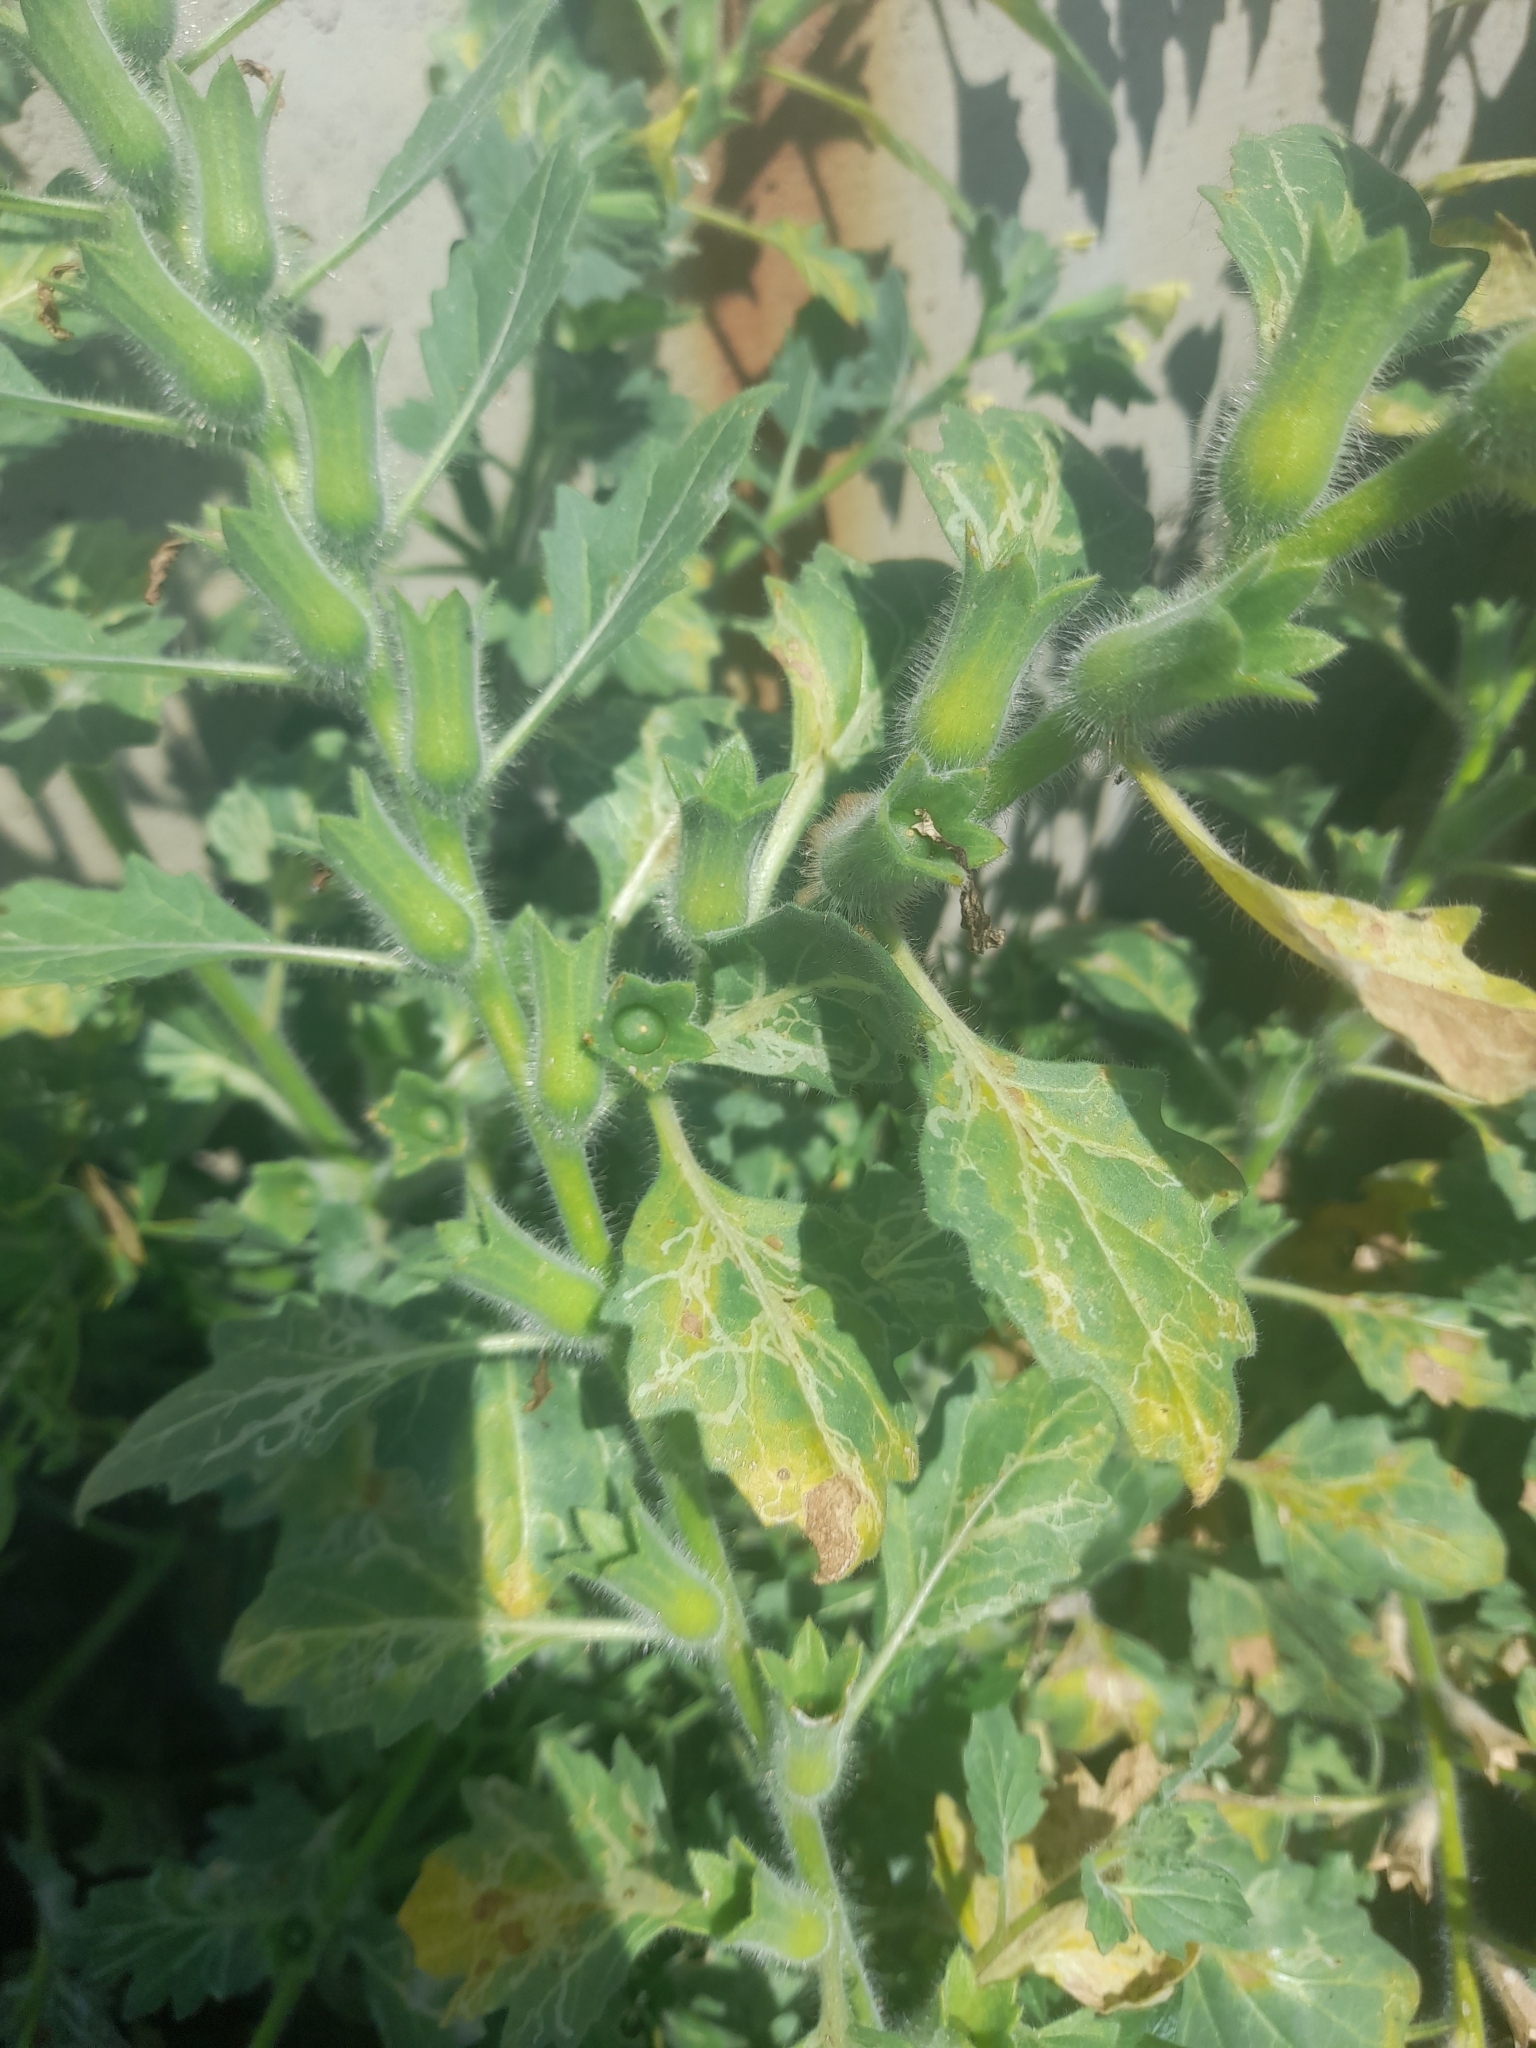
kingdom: Plantae
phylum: Tracheophyta
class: Magnoliopsida
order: Solanales
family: Solanaceae
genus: Hyoscyamus
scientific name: Hyoscyamus albus
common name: White henbane
